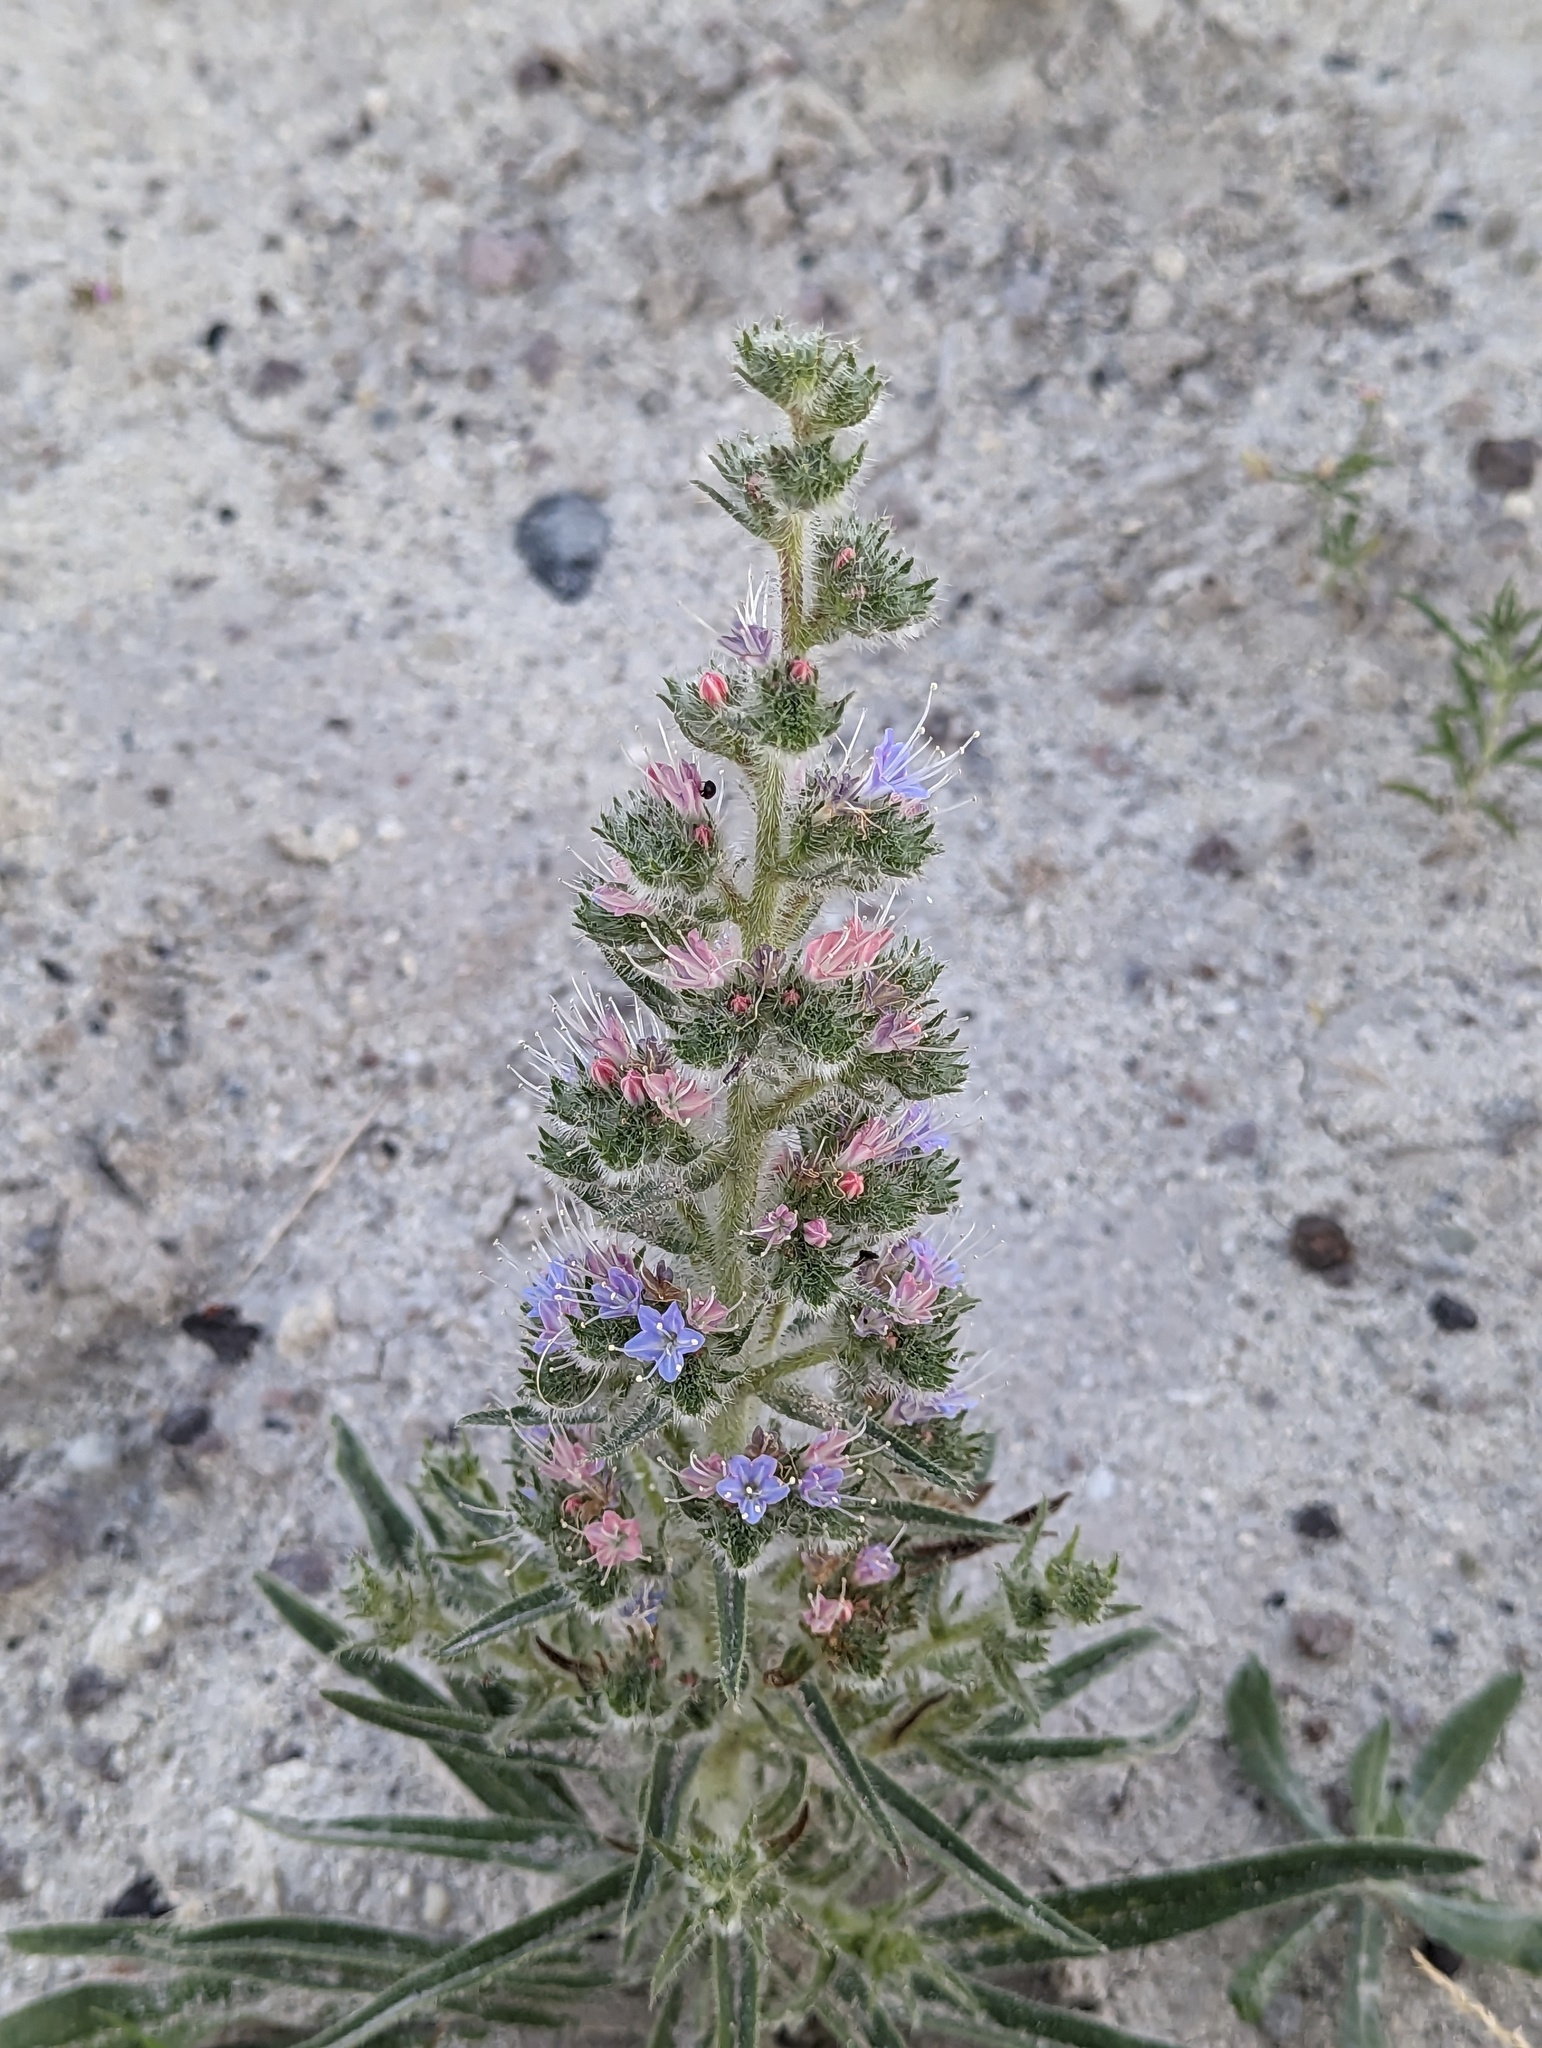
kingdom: Plantae
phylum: Tracheophyta
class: Magnoliopsida
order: Boraginales
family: Boraginaceae
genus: Echium
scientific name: Echium italicum
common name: Italian viper's bugloss
